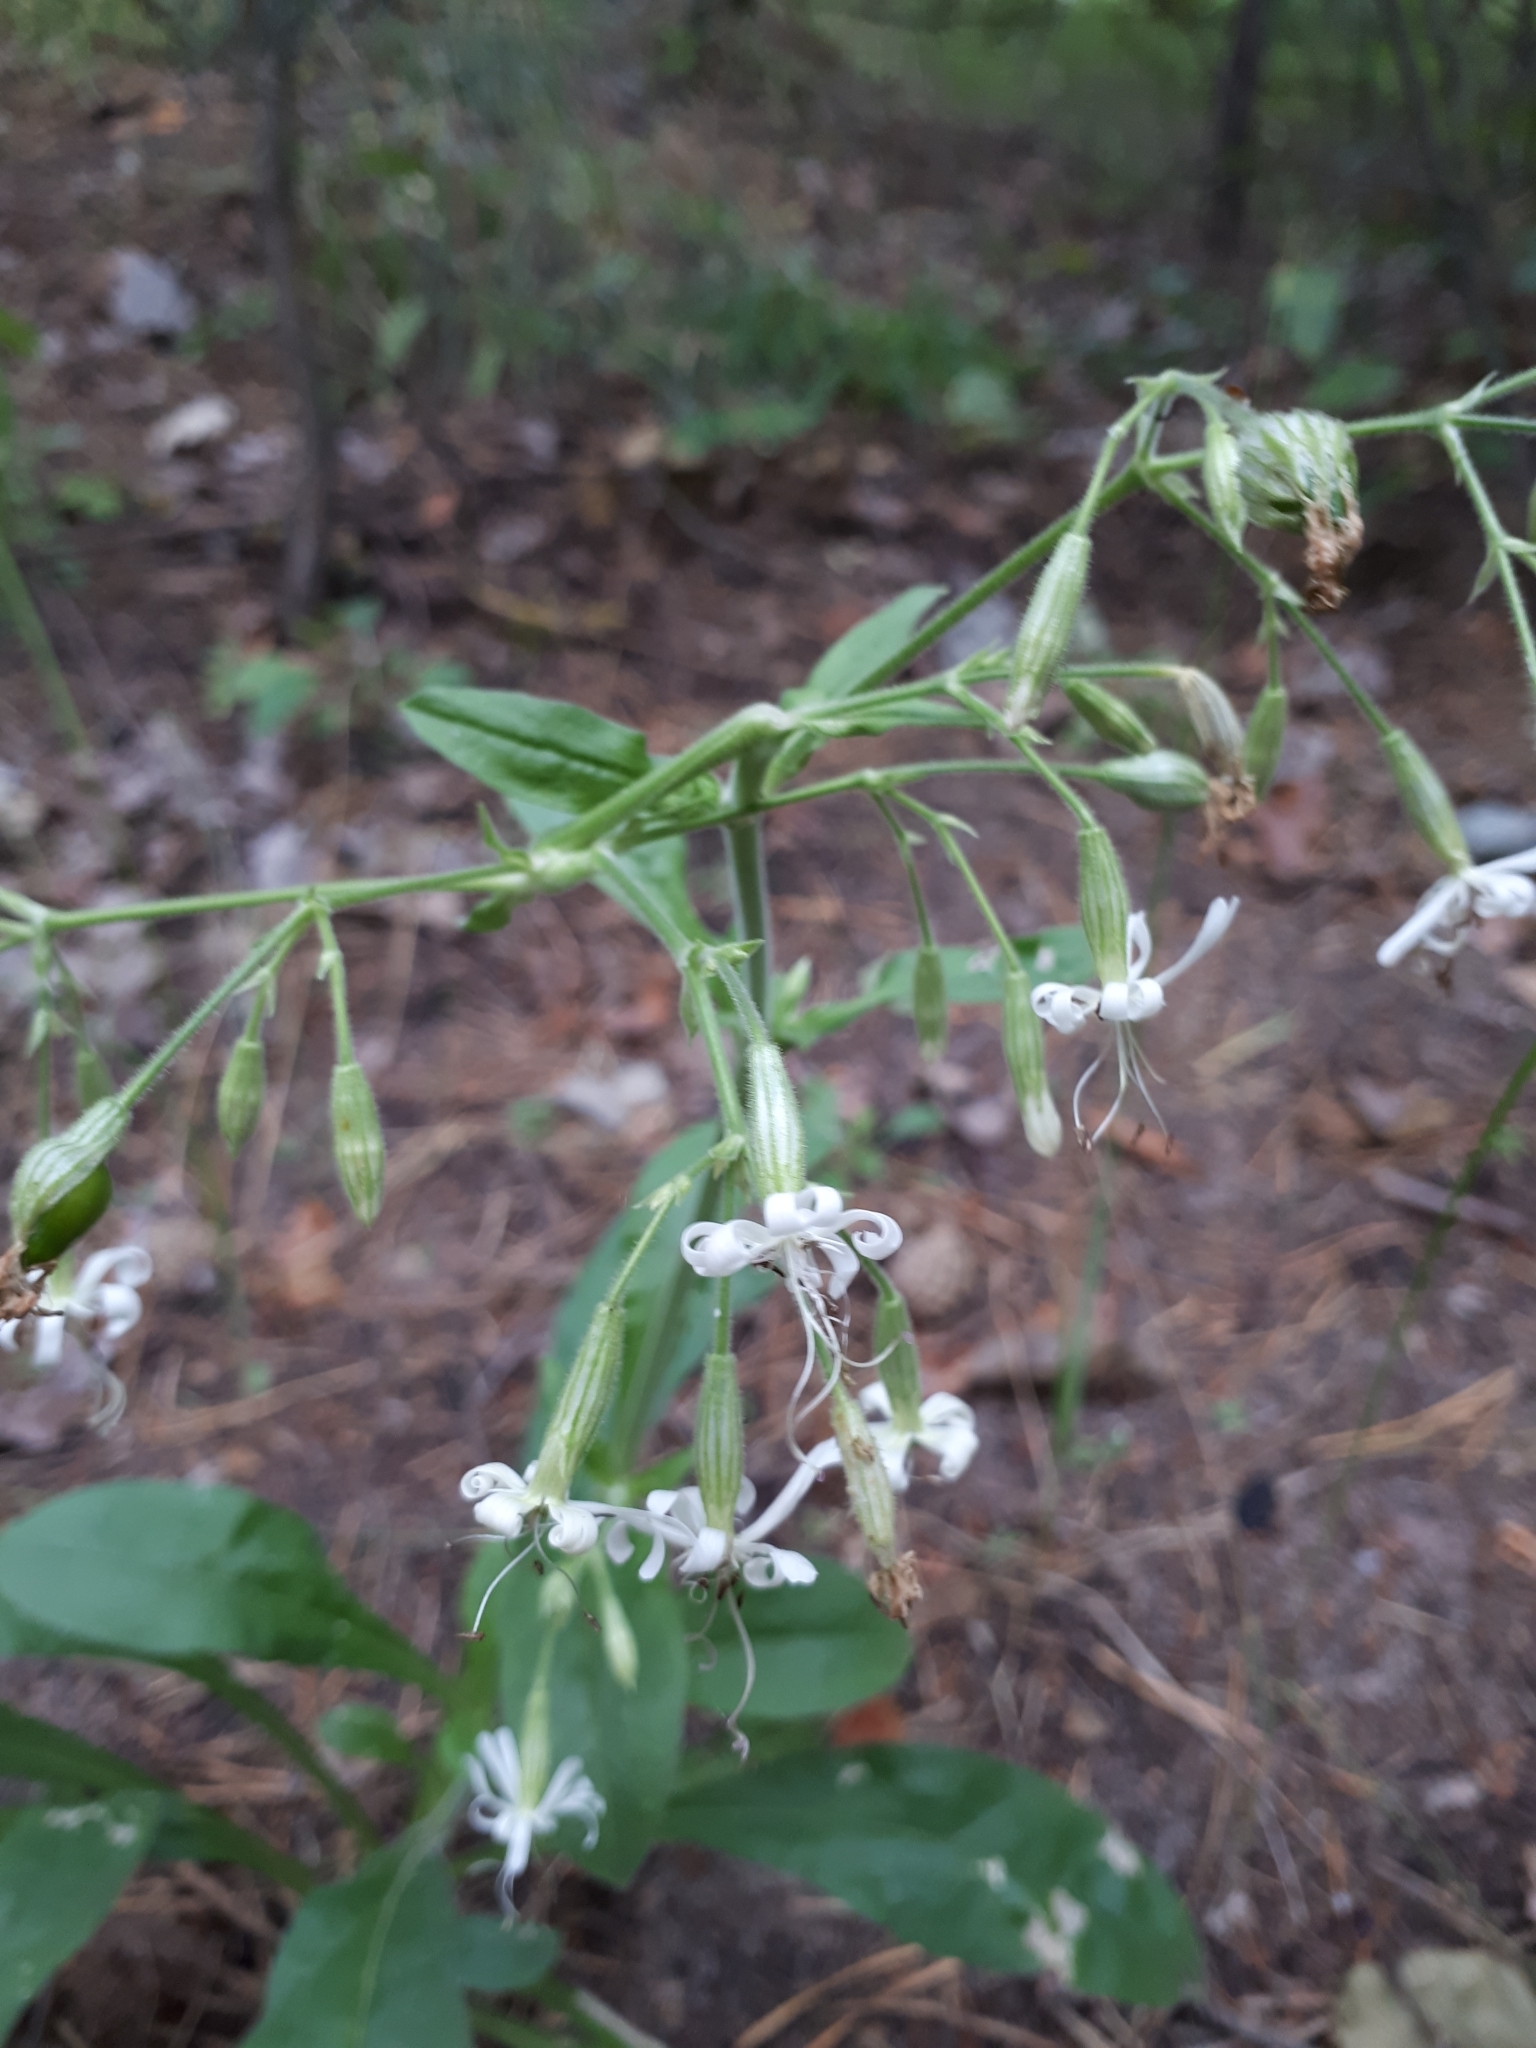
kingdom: Plantae
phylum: Tracheophyta
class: Magnoliopsida
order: Caryophyllales
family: Caryophyllaceae
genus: Silene
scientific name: Silene nutans
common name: Nottingham catchfly
